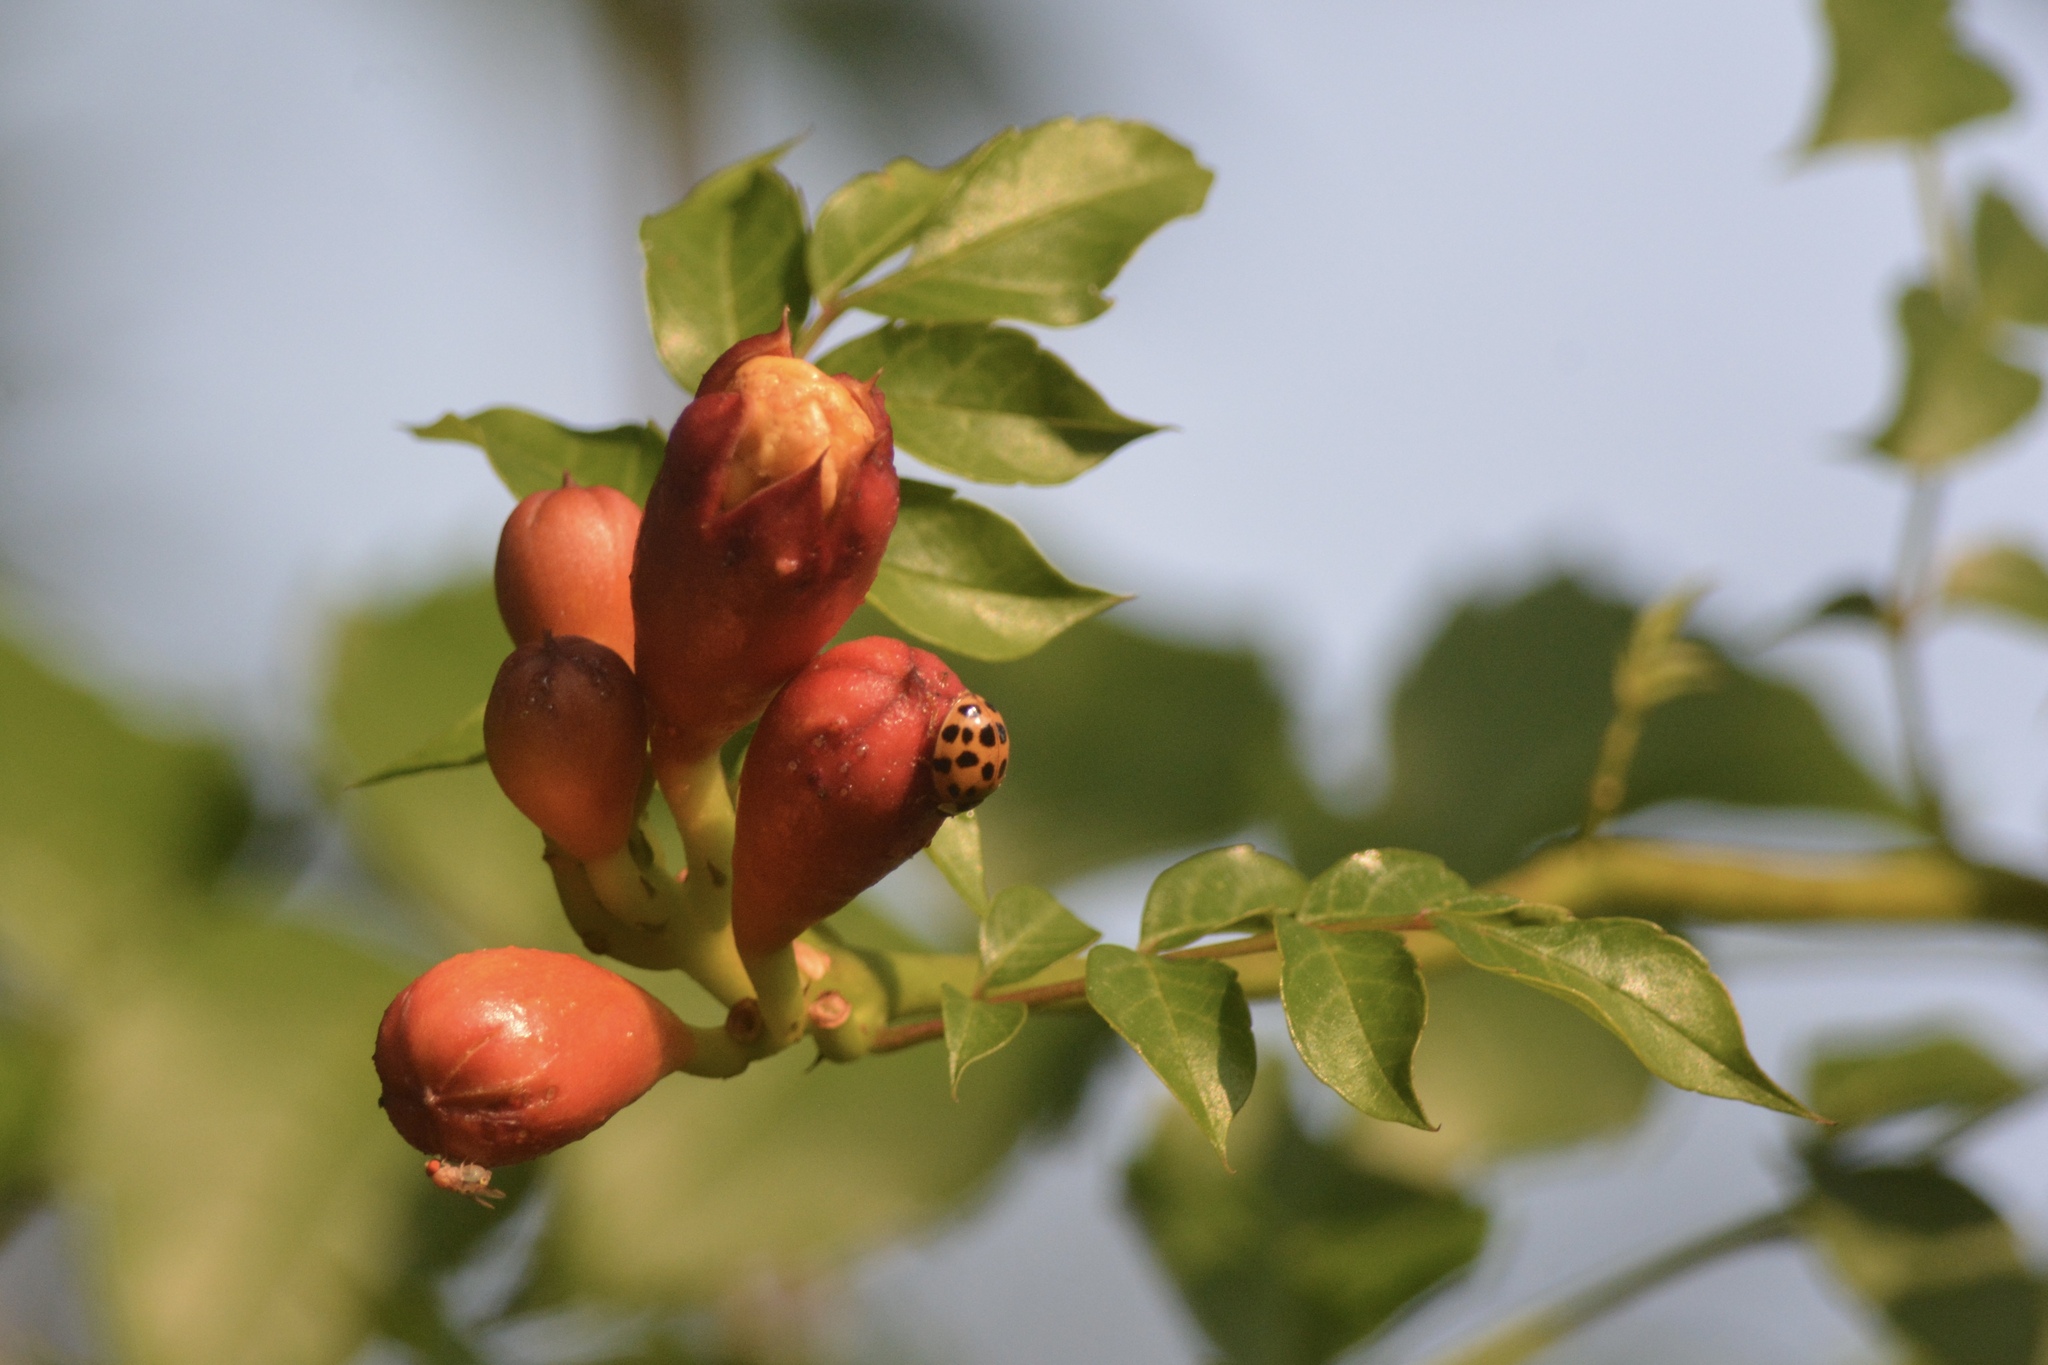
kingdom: Plantae
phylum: Tracheophyta
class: Magnoliopsida
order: Lamiales
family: Bignoniaceae
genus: Campsis
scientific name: Campsis radicans
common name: Trumpet-creeper
